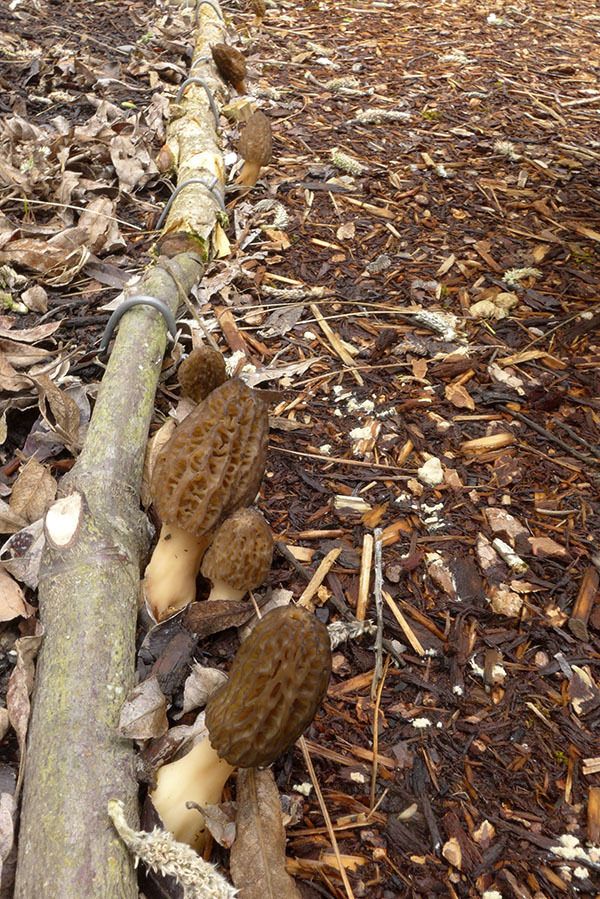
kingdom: Fungi
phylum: Ascomycota
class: Pezizomycetes
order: Pezizales
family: Morchellaceae
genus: Morchella
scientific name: Morchella importuna
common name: Landscaping black morel
